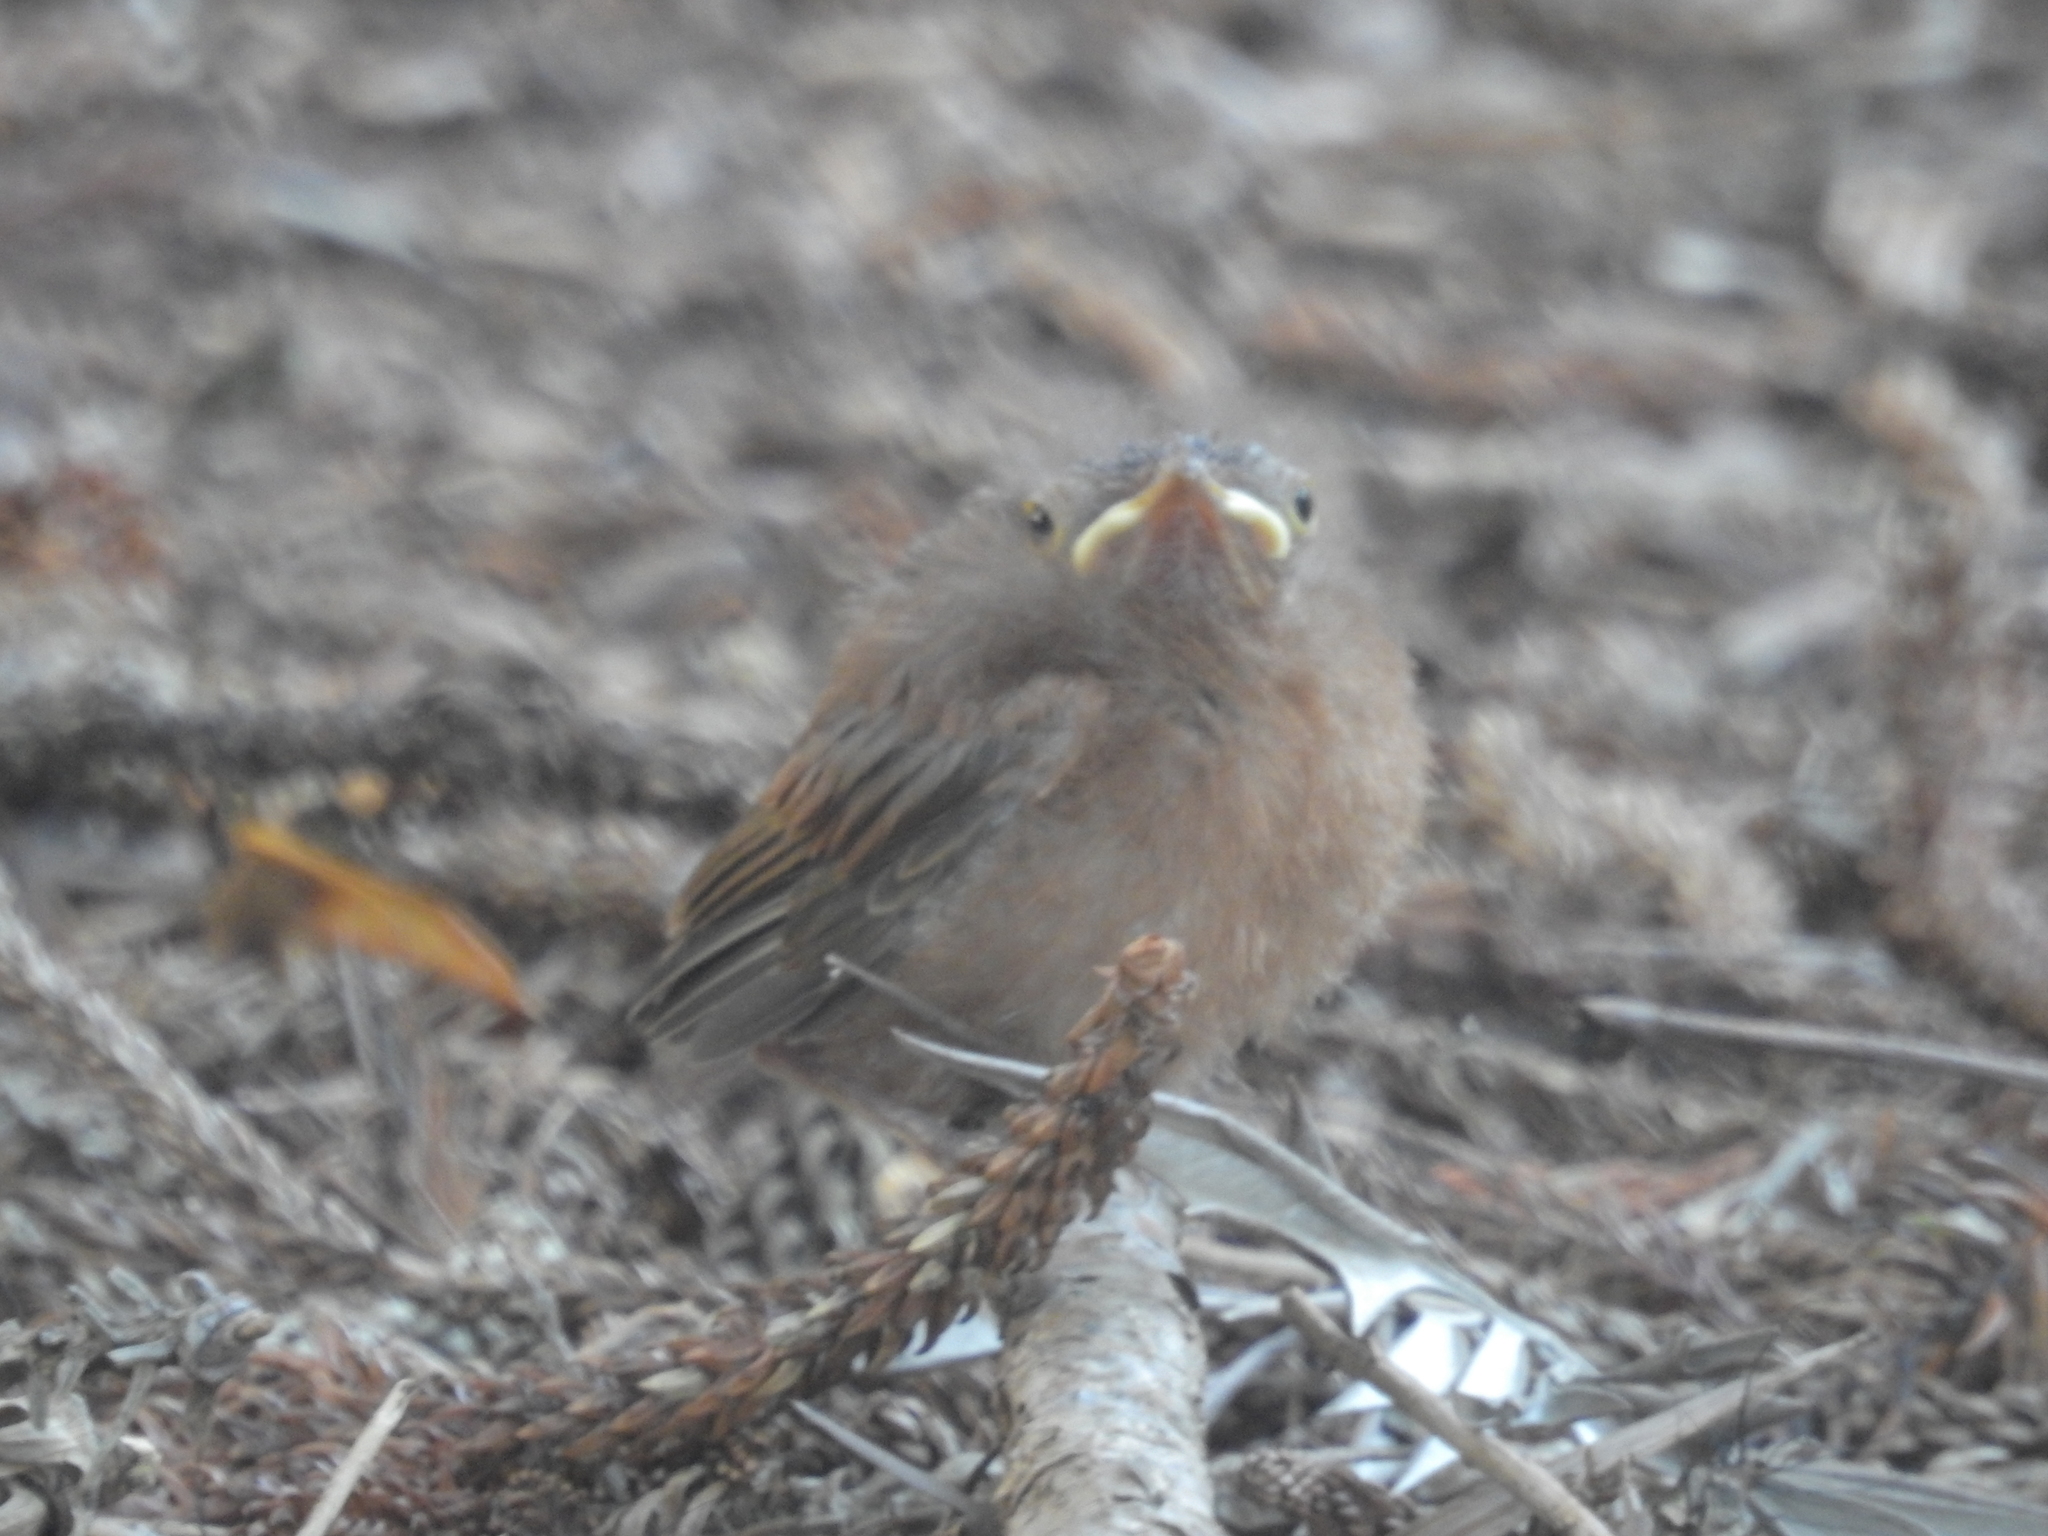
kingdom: Animalia
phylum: Chordata
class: Aves
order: Passeriformes
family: Petroicidae
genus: Eopsaltria
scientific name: Eopsaltria australis
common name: Eastern yellow robin
